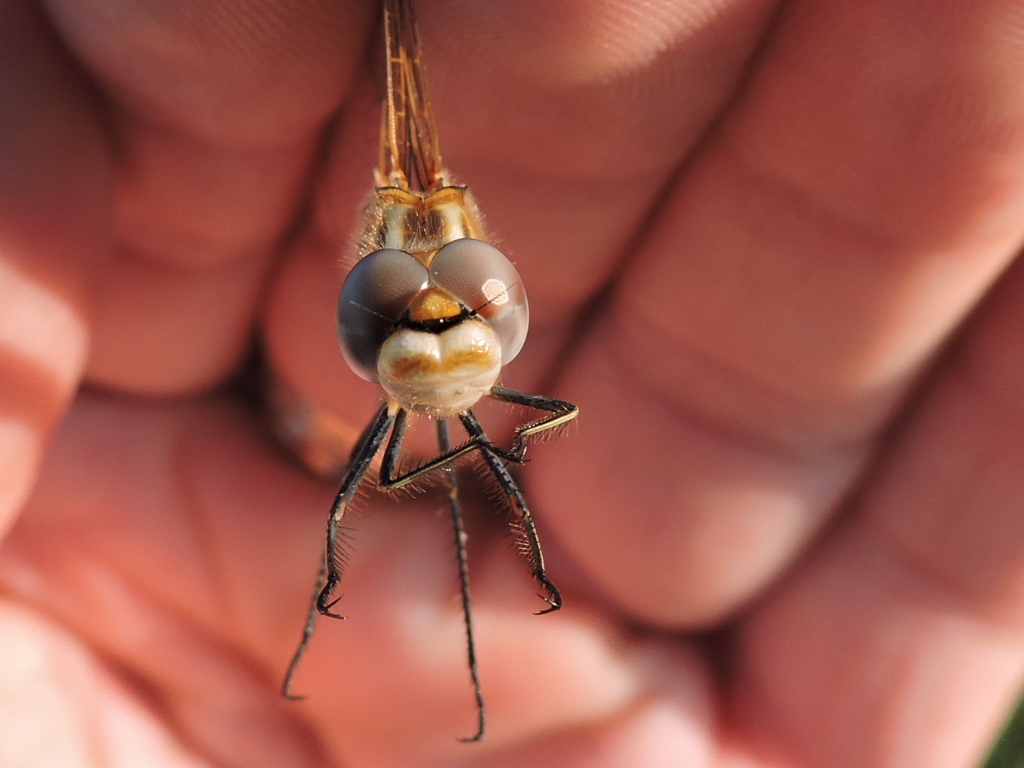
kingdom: Animalia
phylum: Arthropoda
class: Insecta
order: Odonata
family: Libellulidae
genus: Sympetrum
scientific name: Sympetrum corruptum
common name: Variegated meadowhawk
